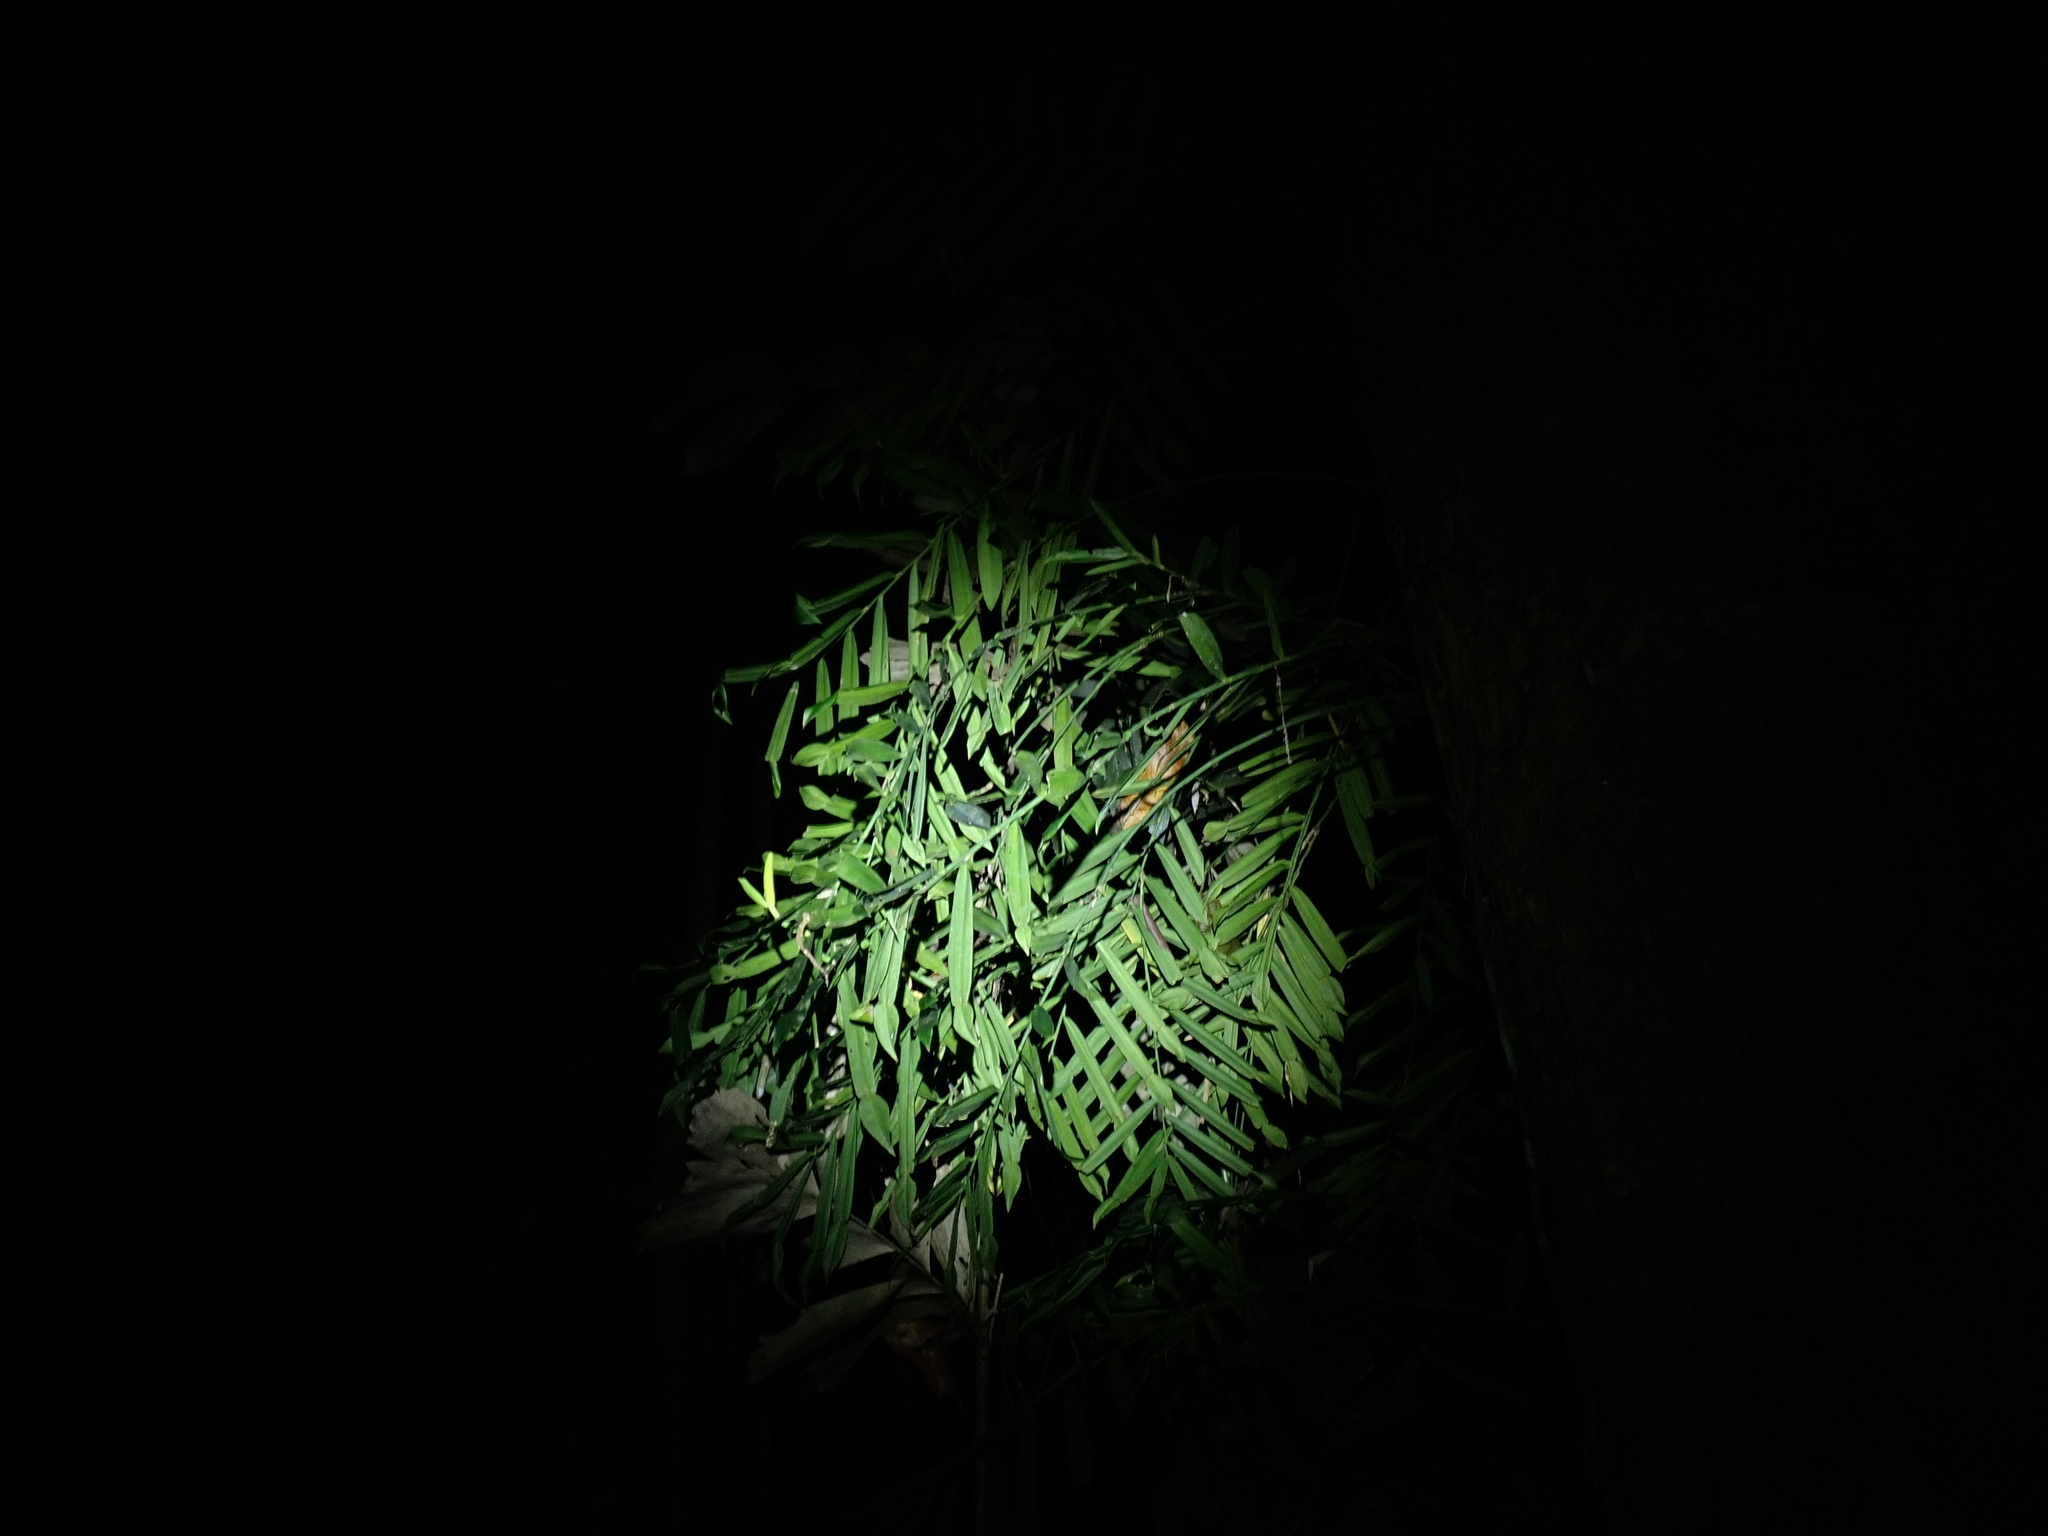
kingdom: Plantae
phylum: Tracheophyta
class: Liliopsida
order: Alismatales
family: Araceae
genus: Pothos
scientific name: Pothos longipes
